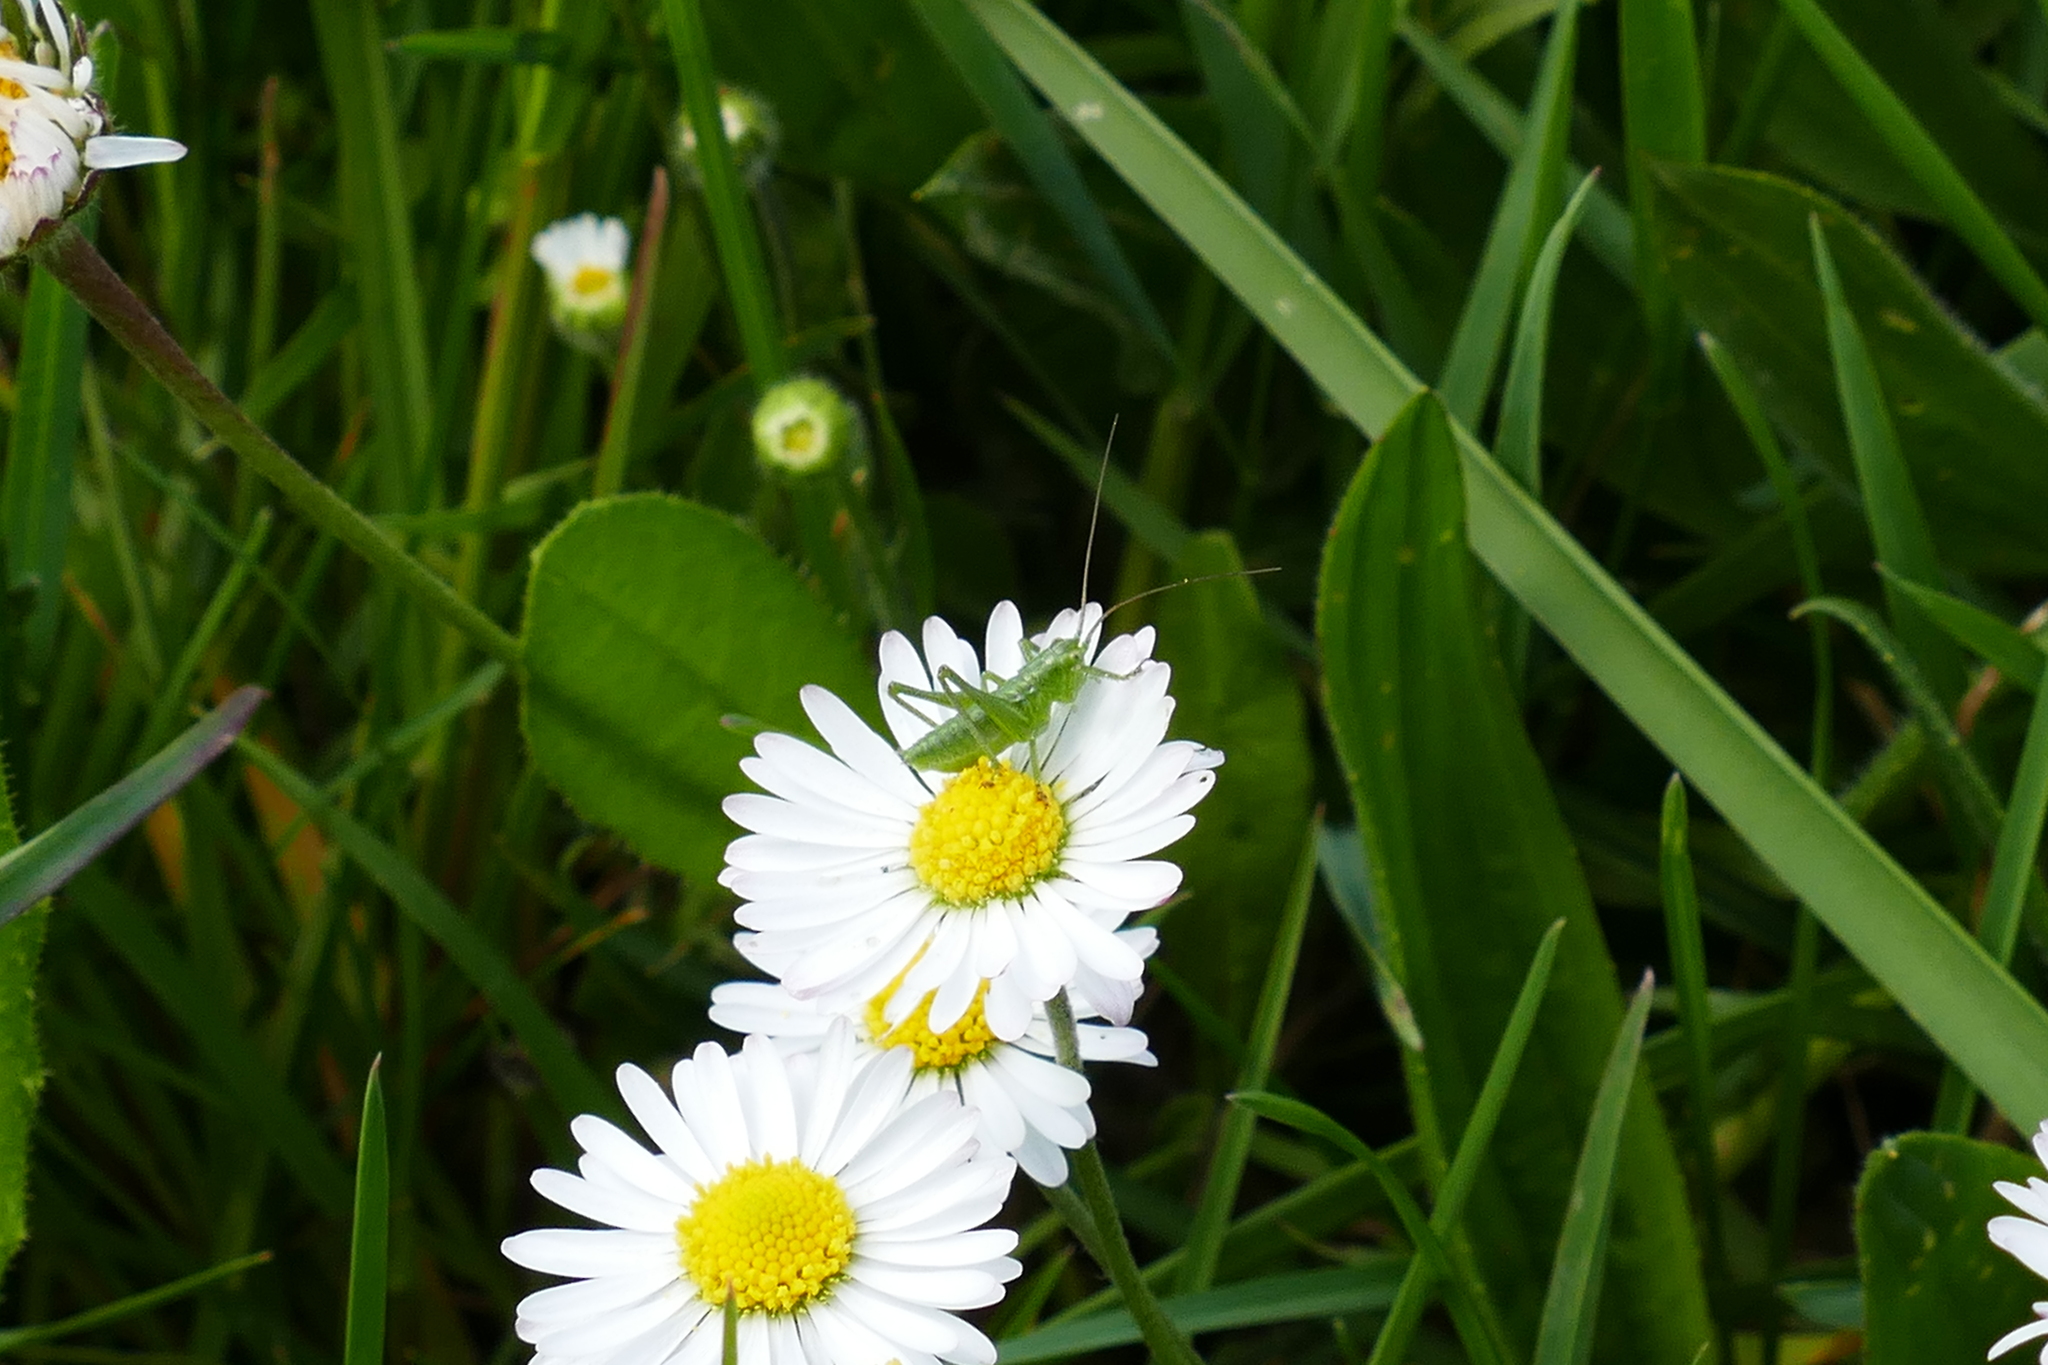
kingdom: Animalia
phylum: Arthropoda
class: Insecta
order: Orthoptera
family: Tettigoniidae
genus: Tettigonia
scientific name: Tettigonia viridissima
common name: Great green bush-cricket
